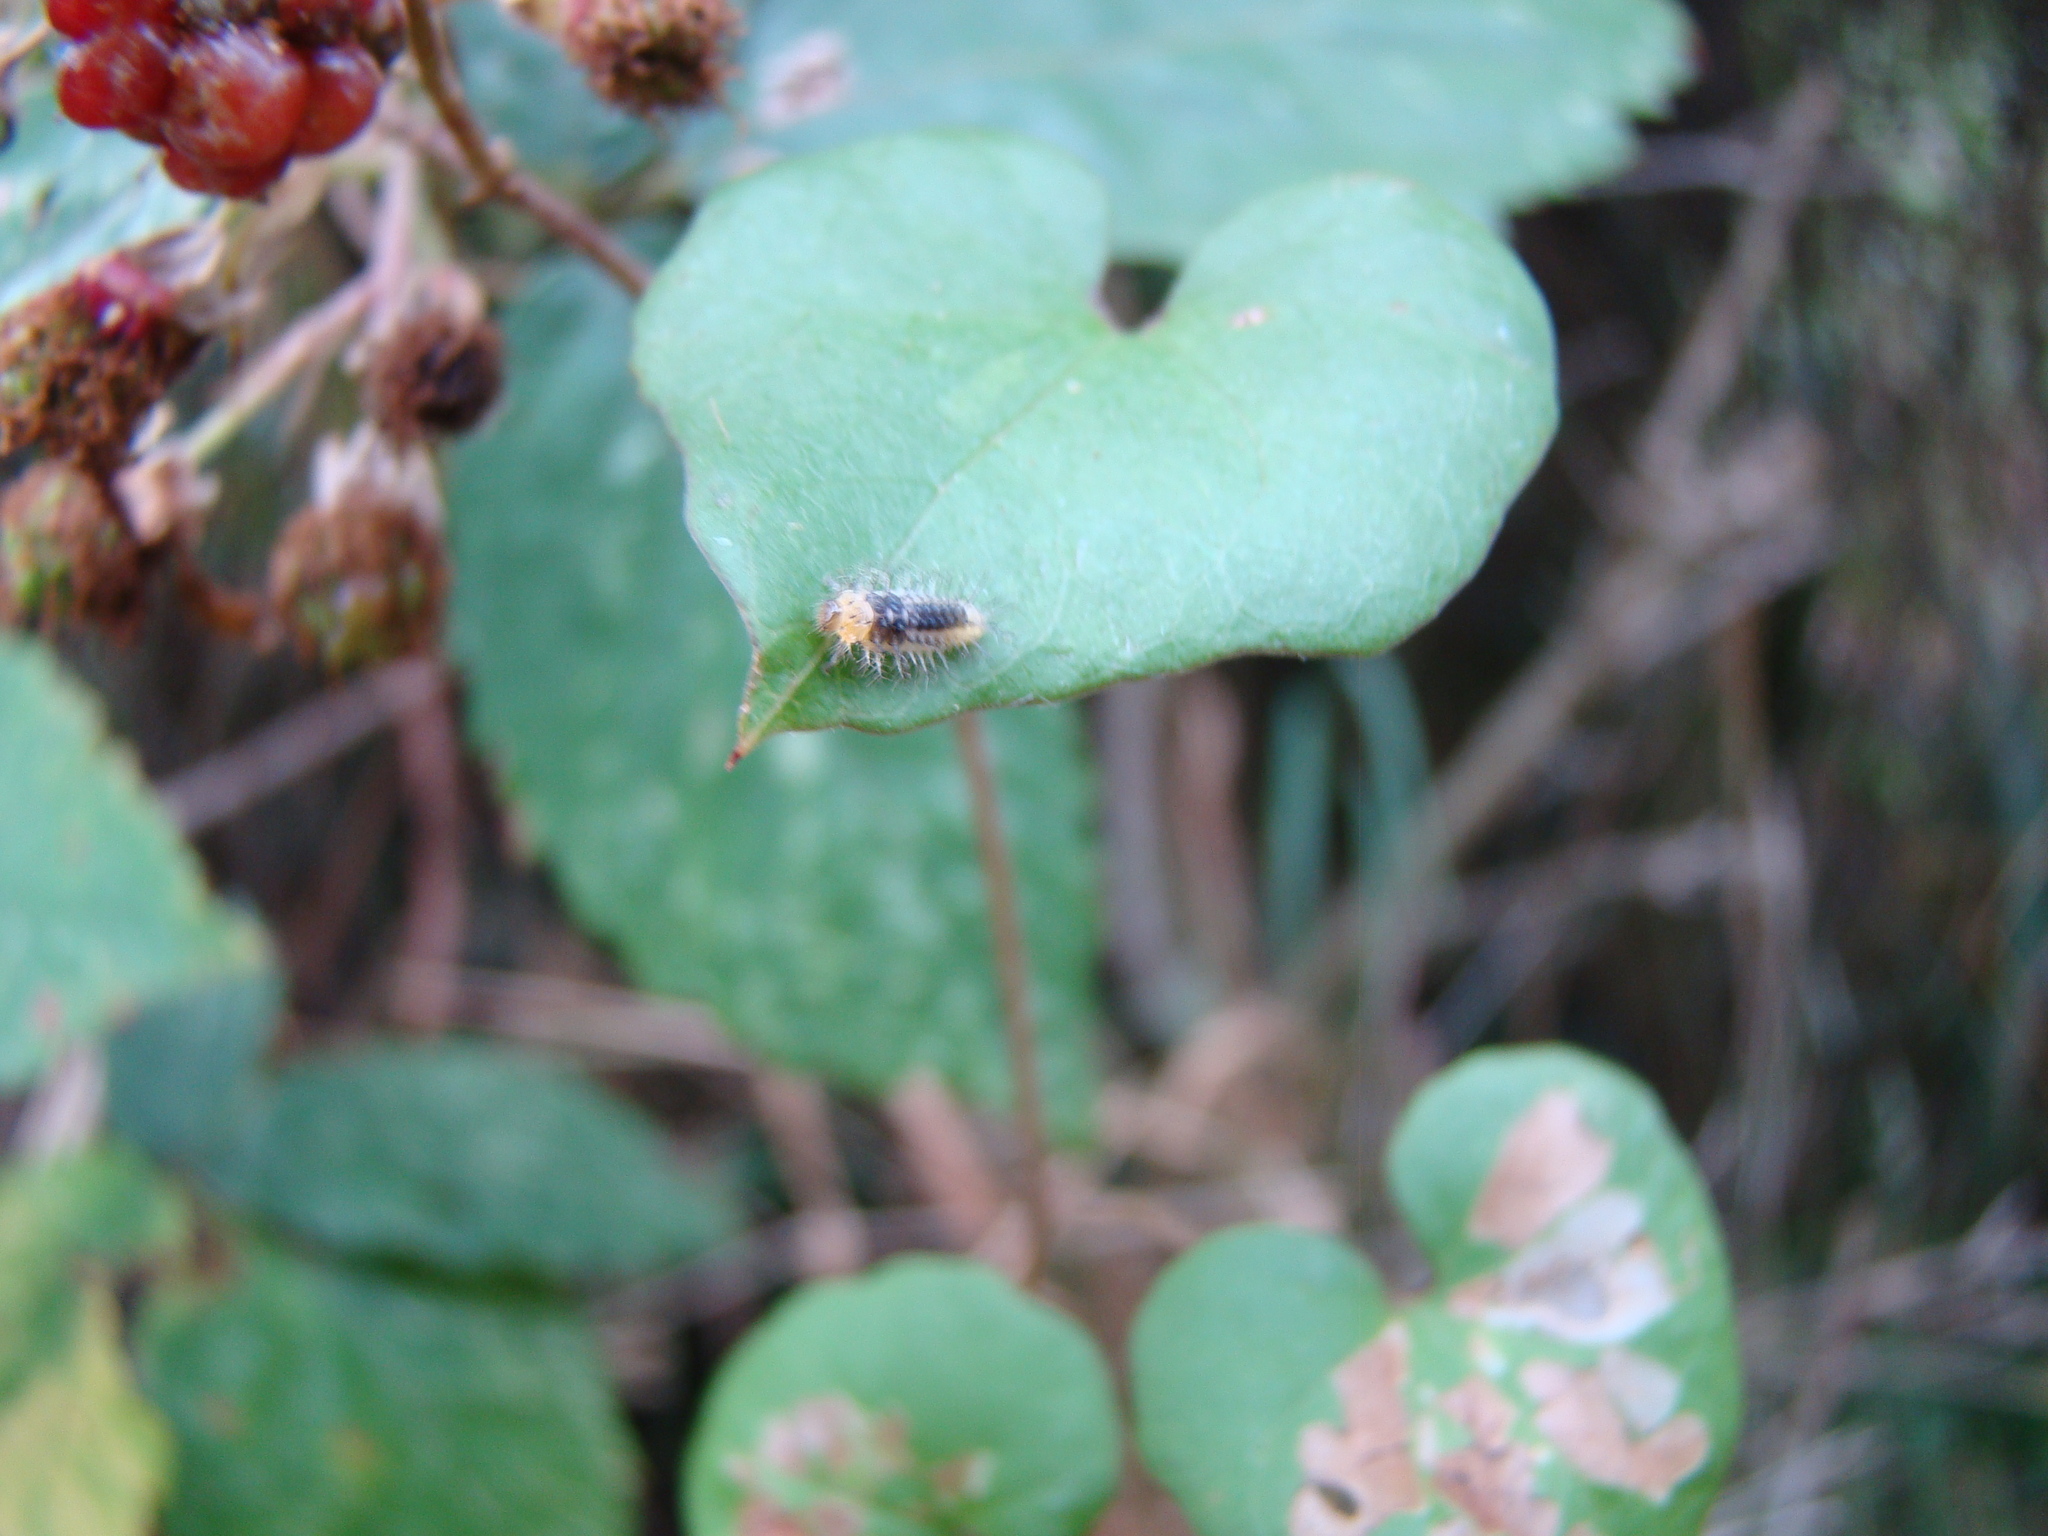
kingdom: Animalia
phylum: Arthropoda
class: Insecta
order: Coleoptera
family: Coccinellidae
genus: Halmus
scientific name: Halmus chalybeus
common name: Steel blue ladybird beetle
